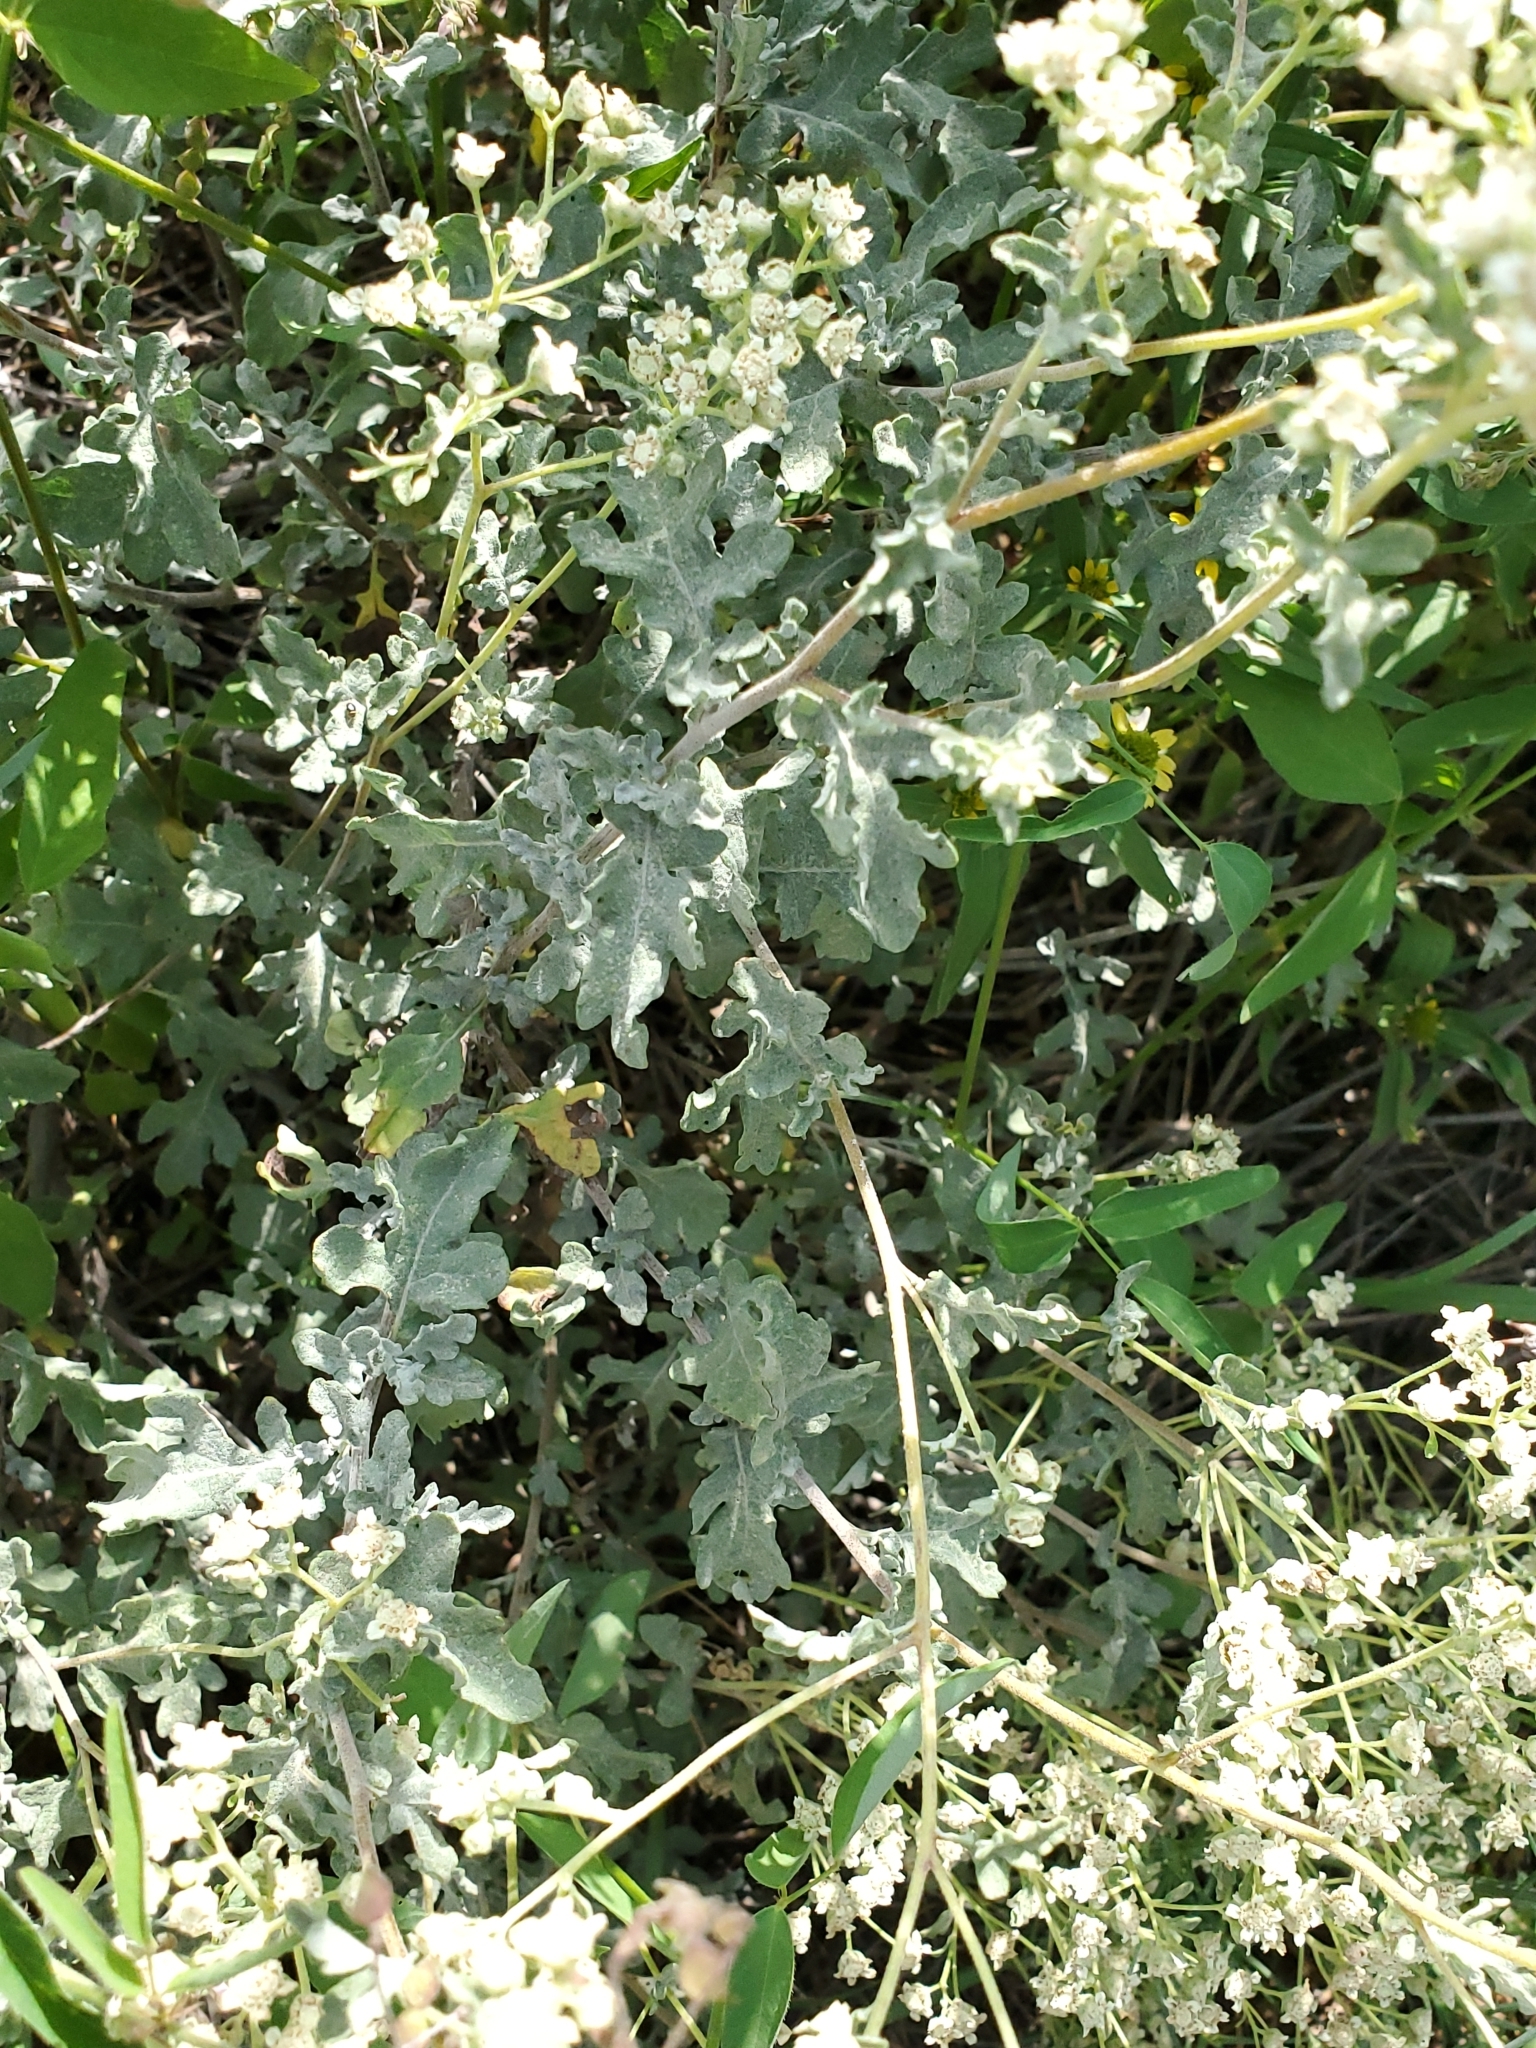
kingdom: Plantae
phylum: Tracheophyta
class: Magnoliopsida
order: Asterales
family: Asteraceae
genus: Parthenium
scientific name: Parthenium incanum
